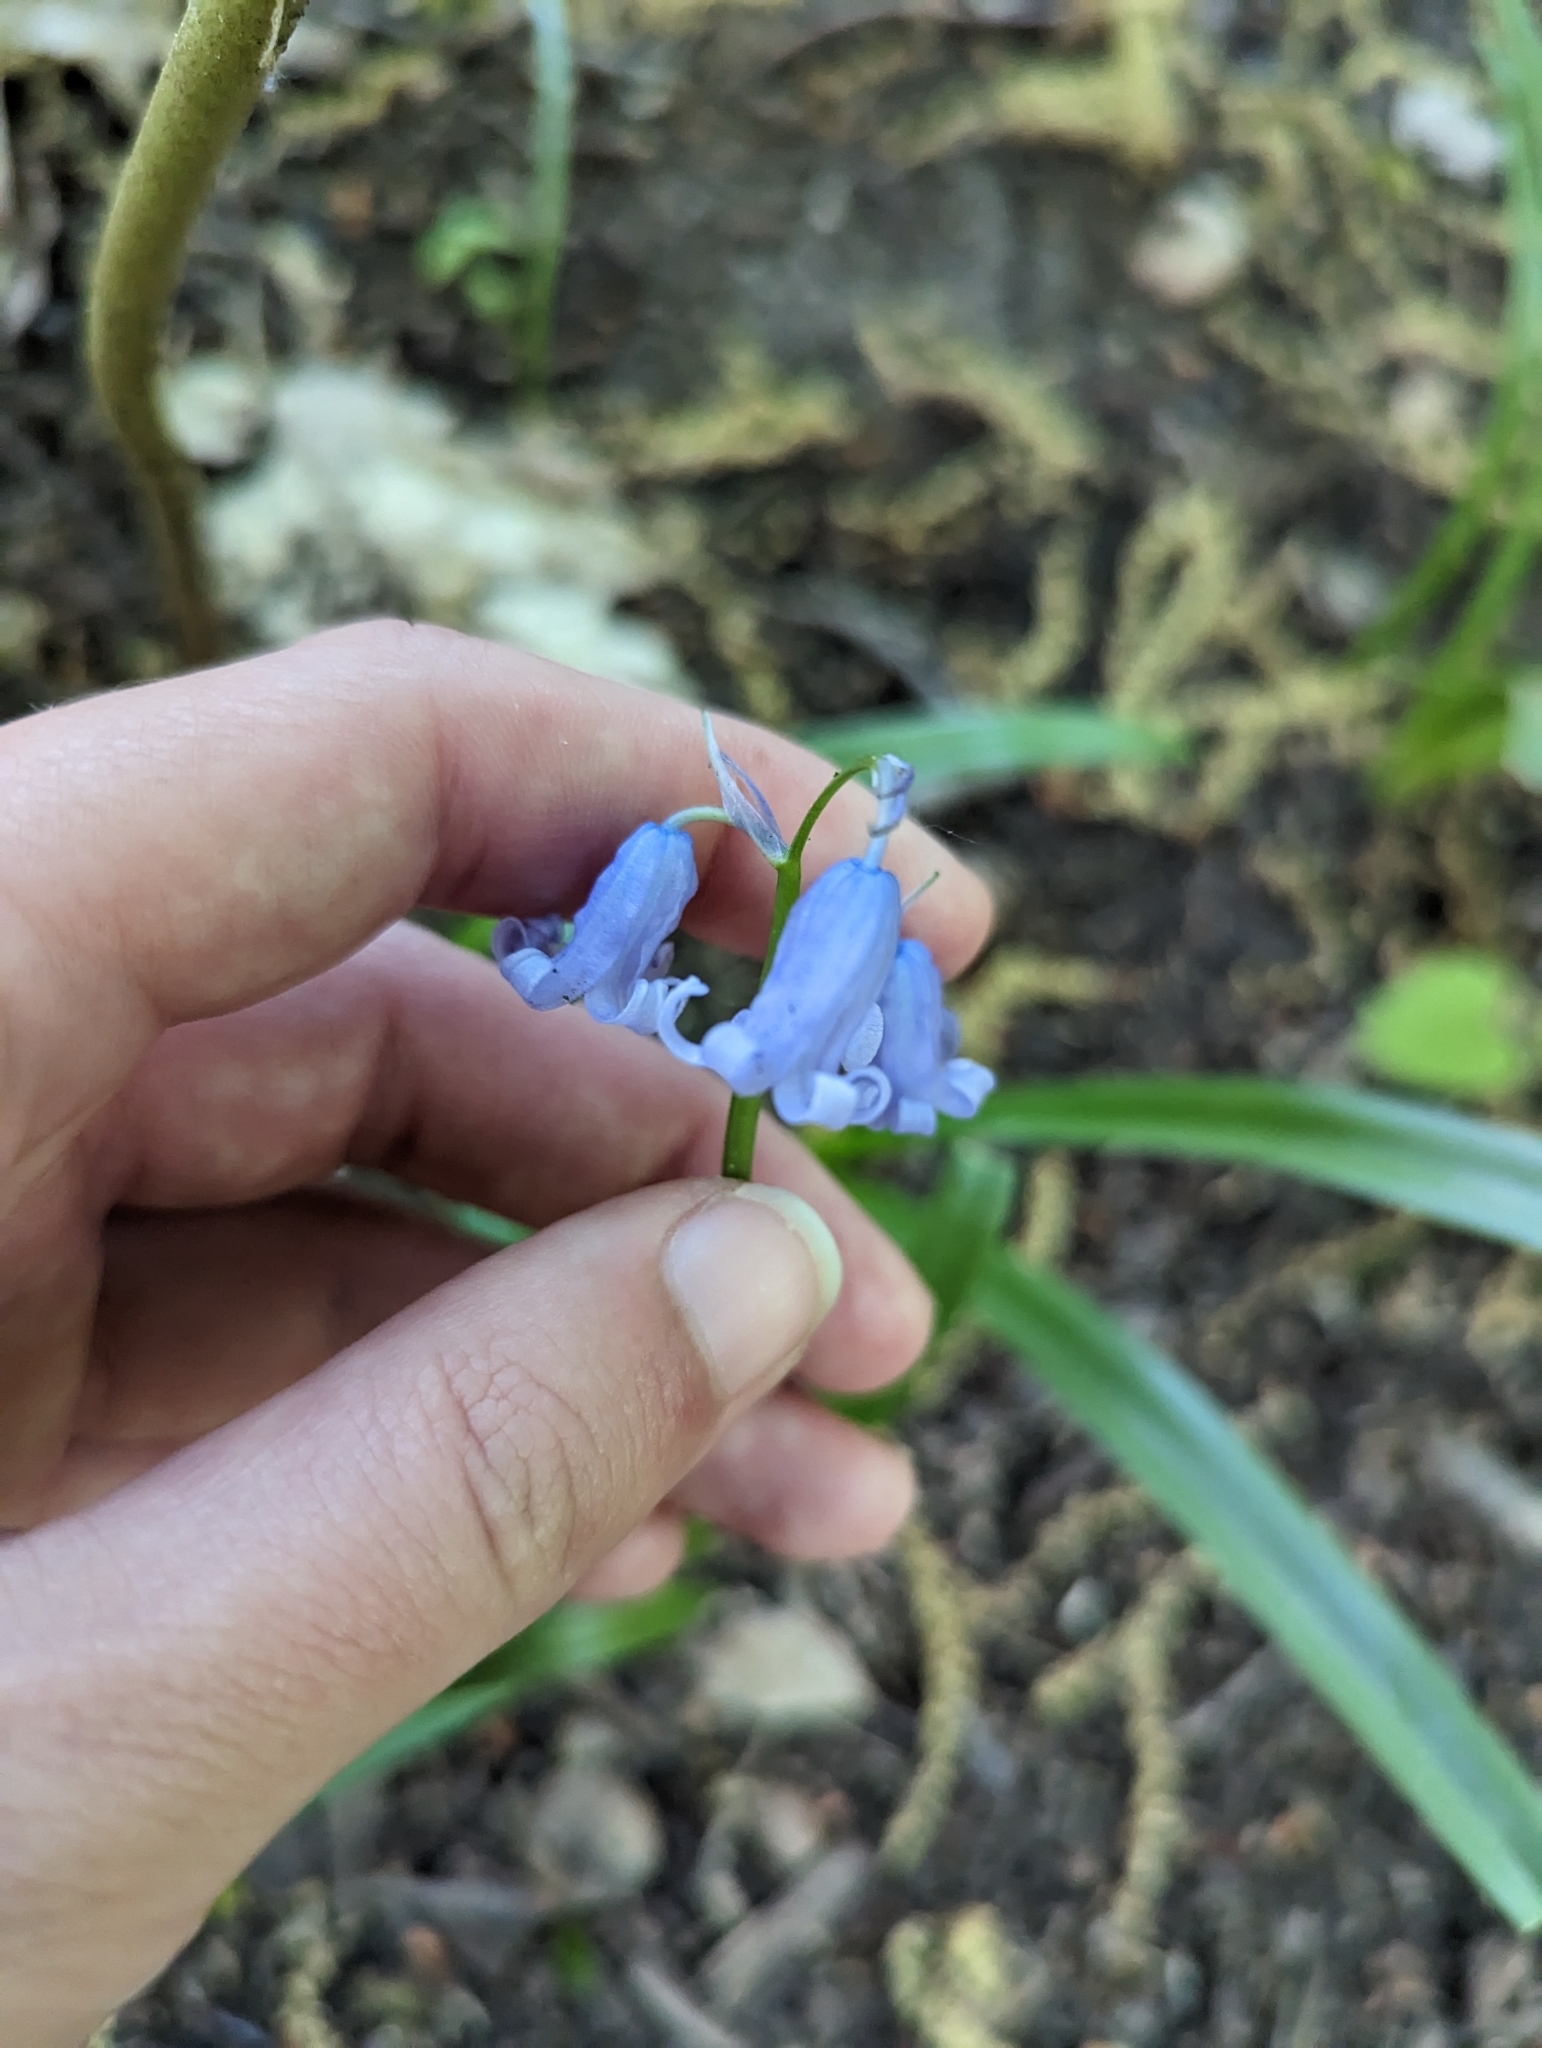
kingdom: Plantae
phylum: Tracheophyta
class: Liliopsida
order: Asparagales
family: Asparagaceae
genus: Hyacinthoides
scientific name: Hyacinthoides non-scripta
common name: Bluebell
